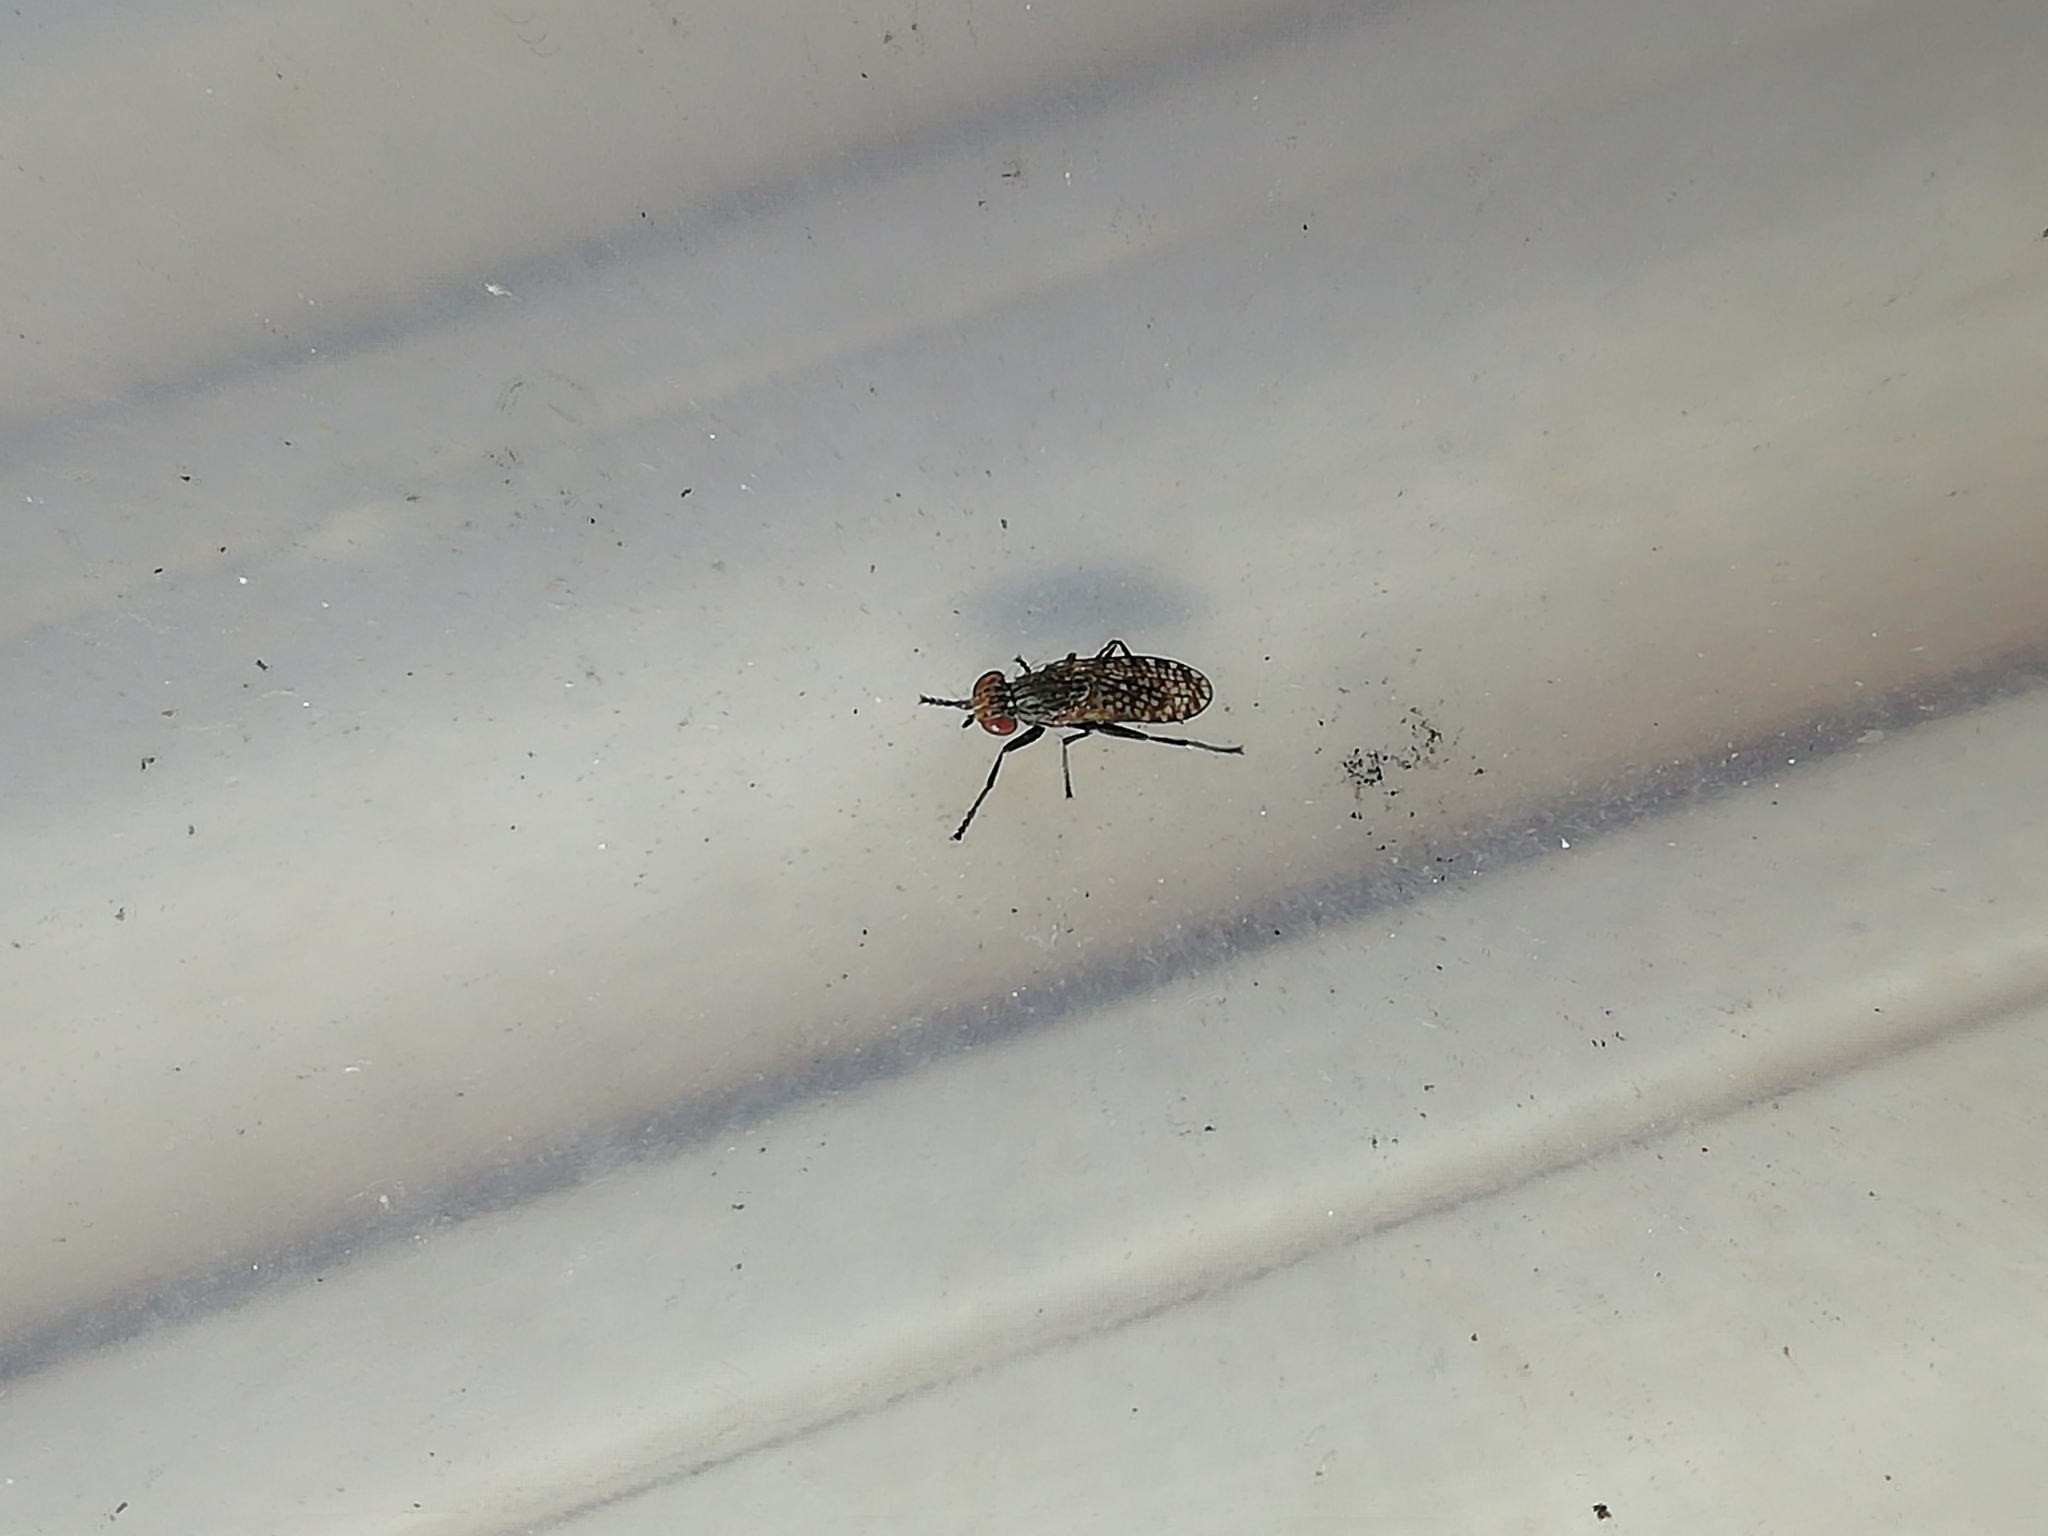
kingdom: Animalia
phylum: Arthropoda
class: Insecta
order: Diptera
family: Sciomyzidae
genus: Pherbellia
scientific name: Pherbellia clathrata
